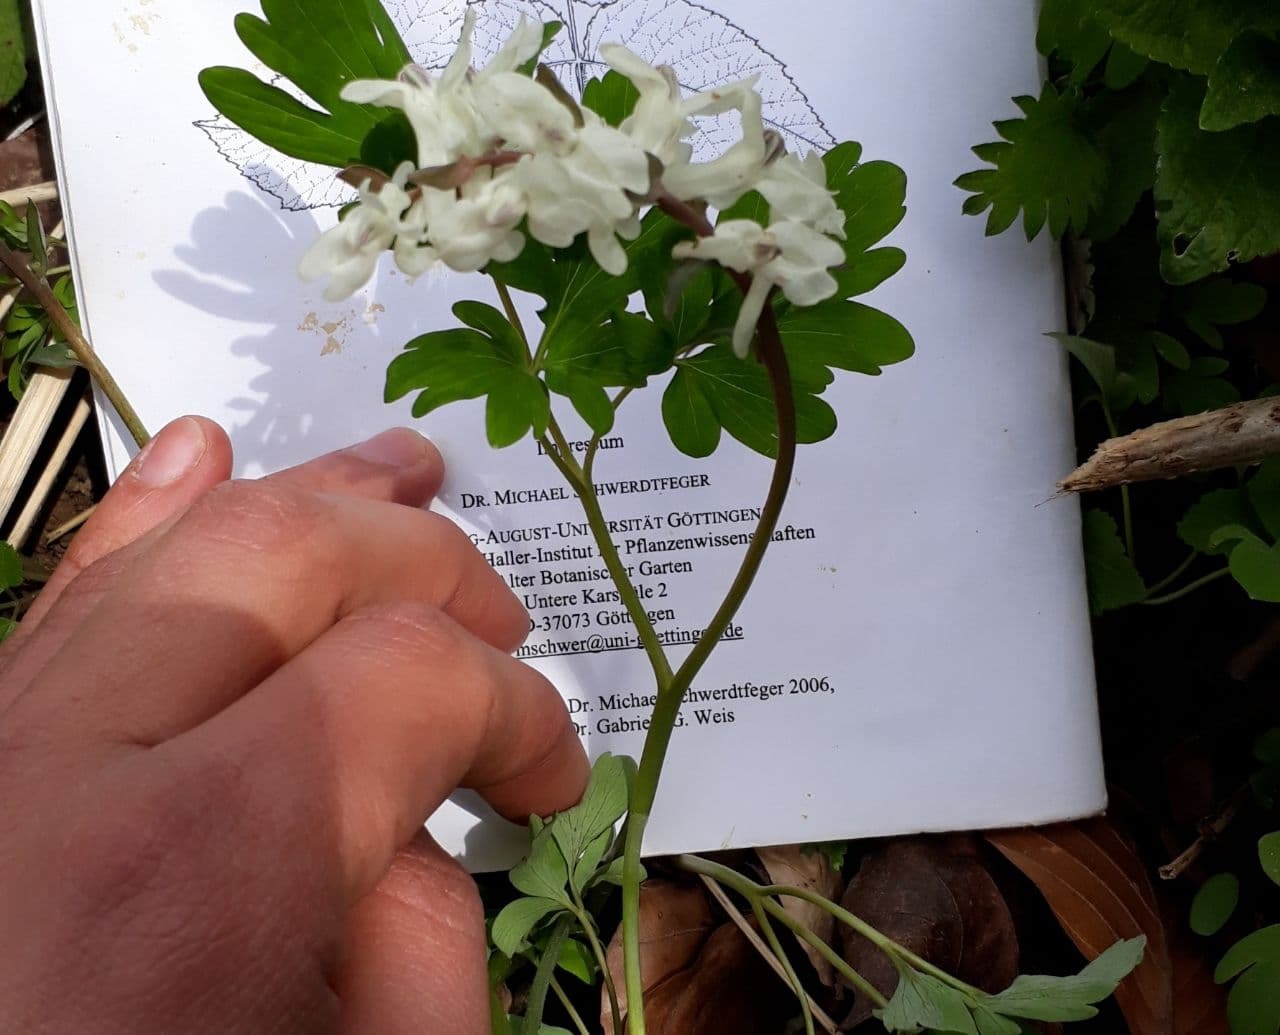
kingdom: Plantae
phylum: Tracheophyta
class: Magnoliopsida
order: Ranunculales
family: Papaveraceae
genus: Corydalis
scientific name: Corydalis cava
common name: Hollowroot
